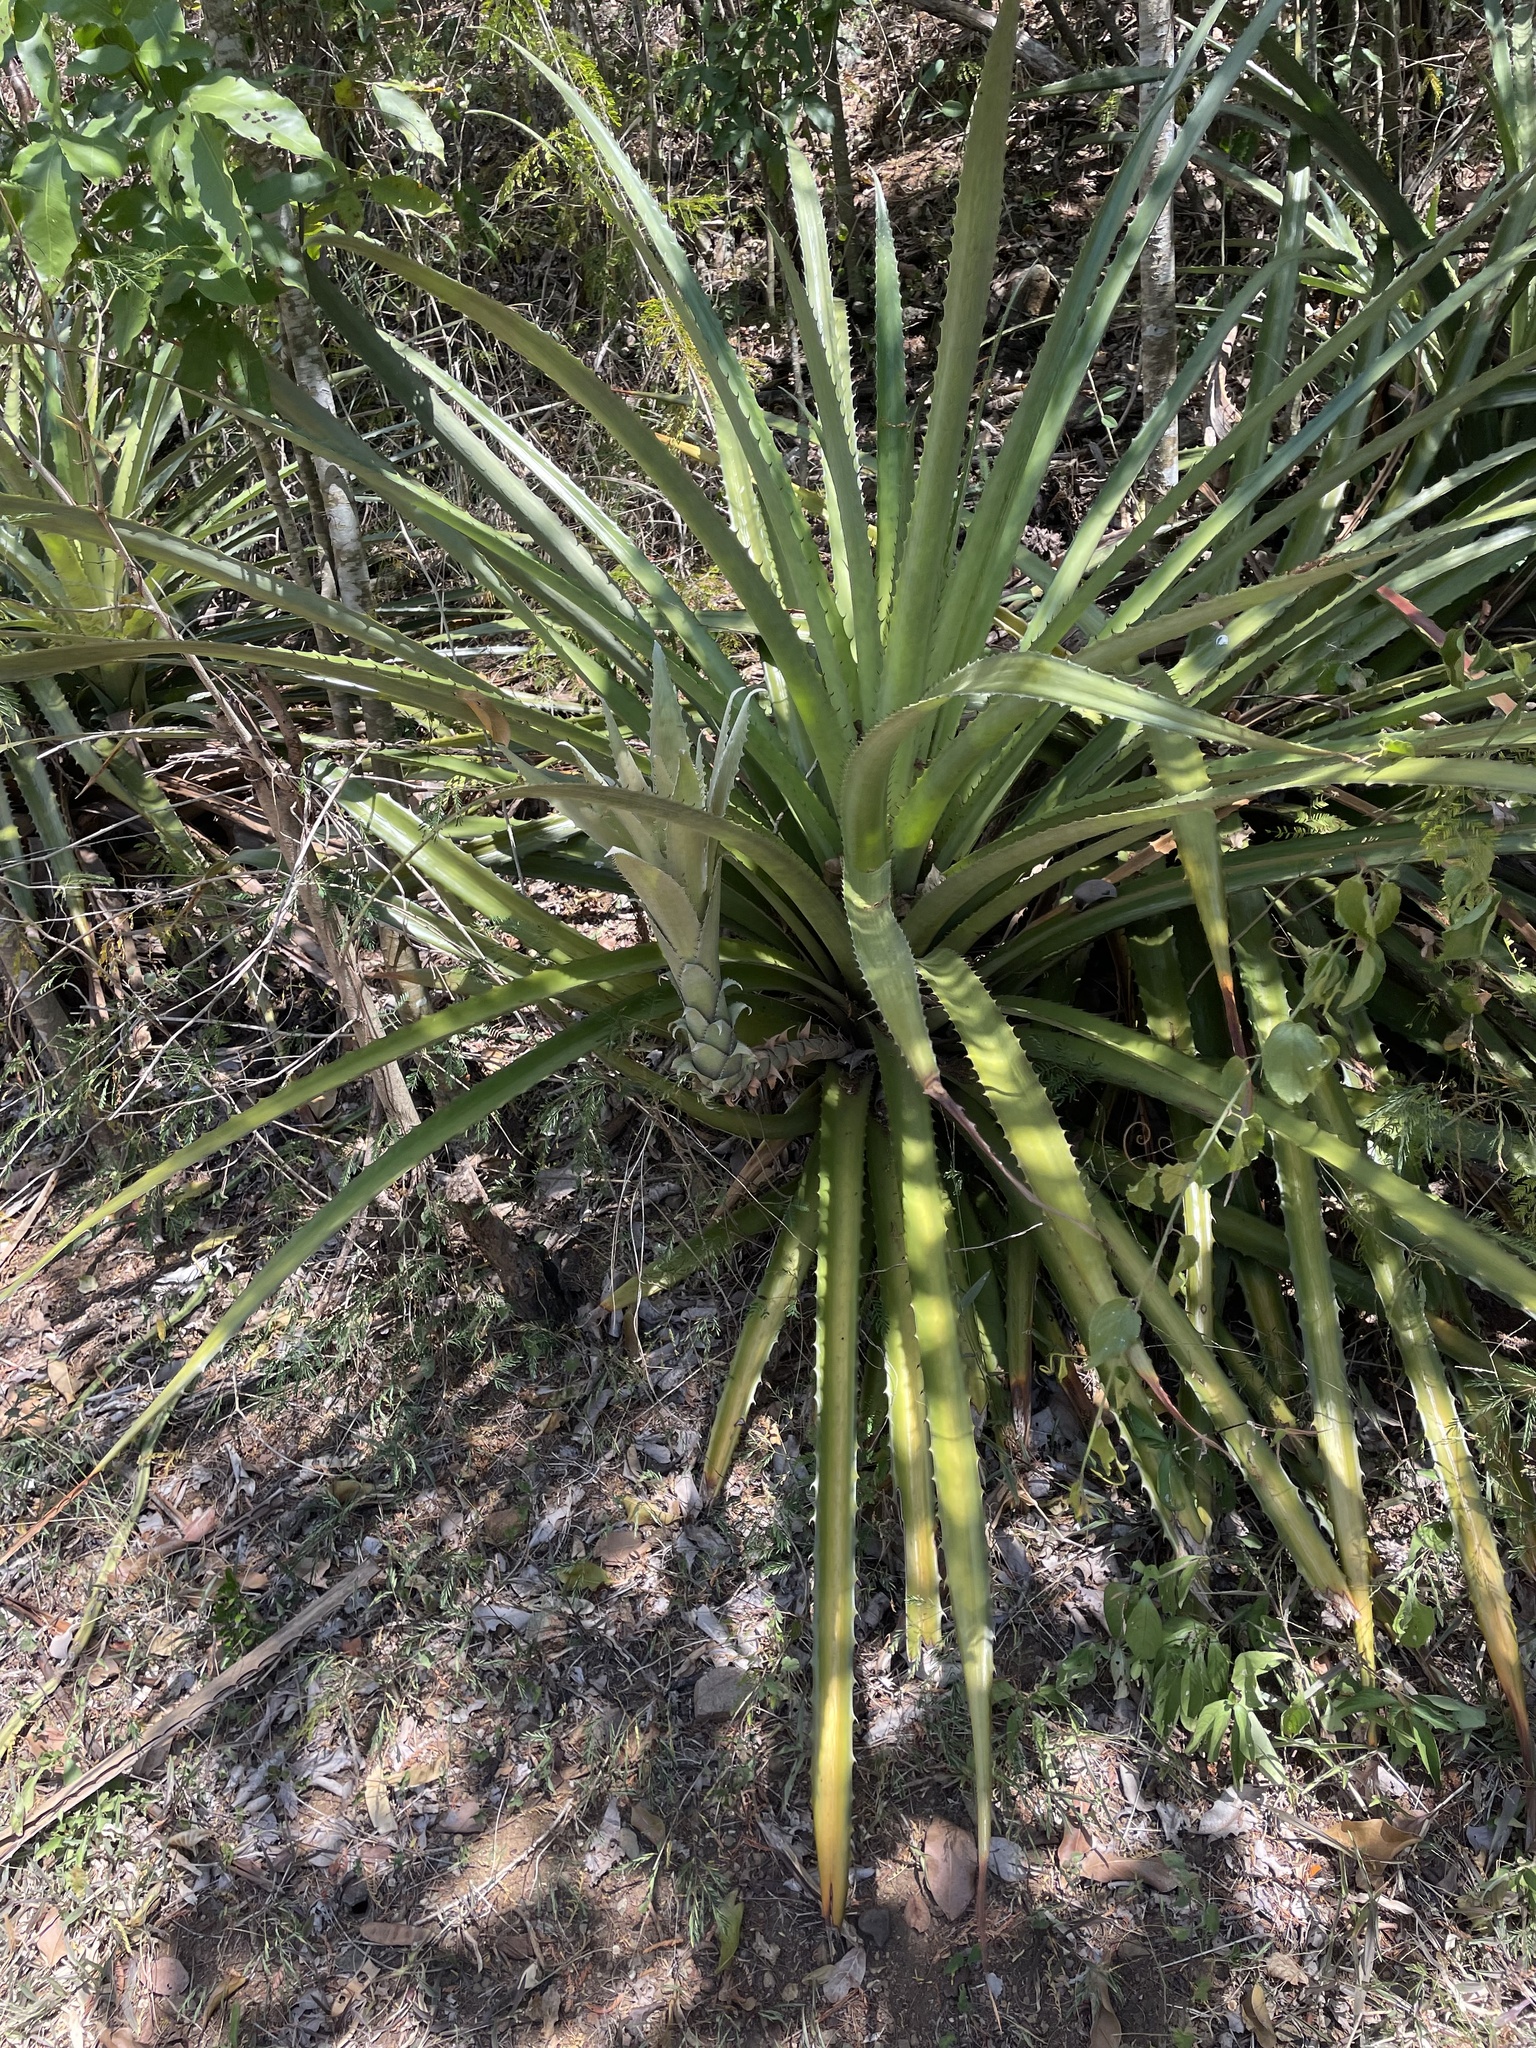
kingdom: Plantae
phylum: Tracheophyta
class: Liliopsida
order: Poales
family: Bromeliaceae
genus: Bromelia
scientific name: Bromelia pinguin
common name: Pinguin
